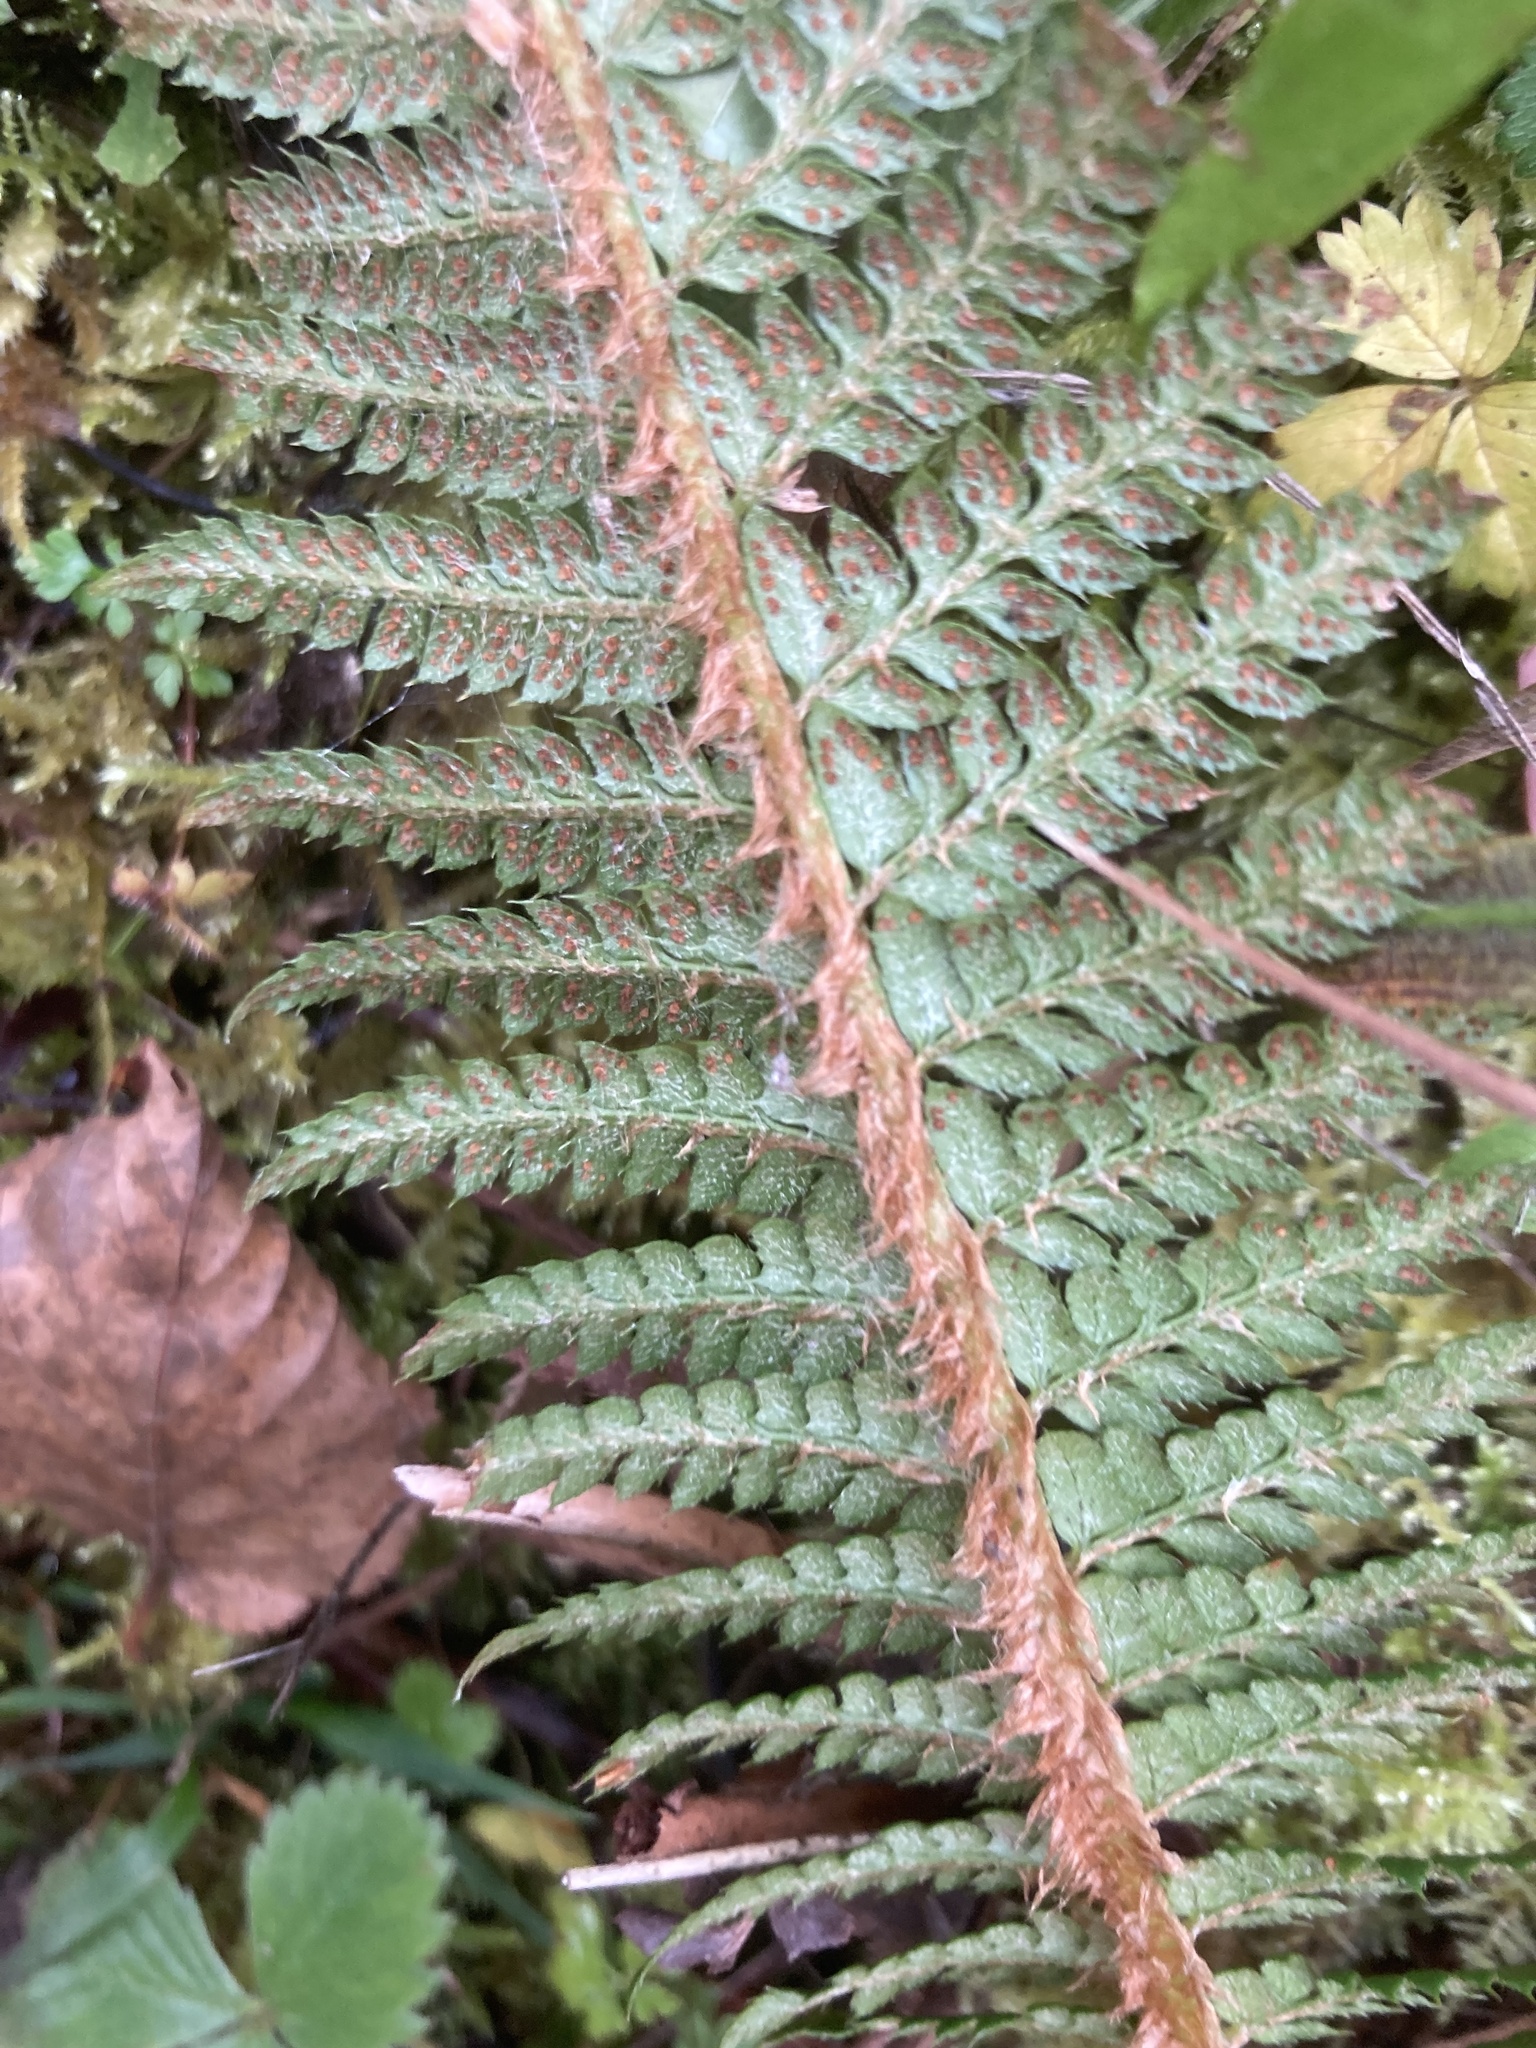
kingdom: Plantae
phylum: Tracheophyta
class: Polypodiopsida
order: Polypodiales
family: Dryopteridaceae
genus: Polystichum
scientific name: Polystichum aculeatum
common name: Hard shield-fern
